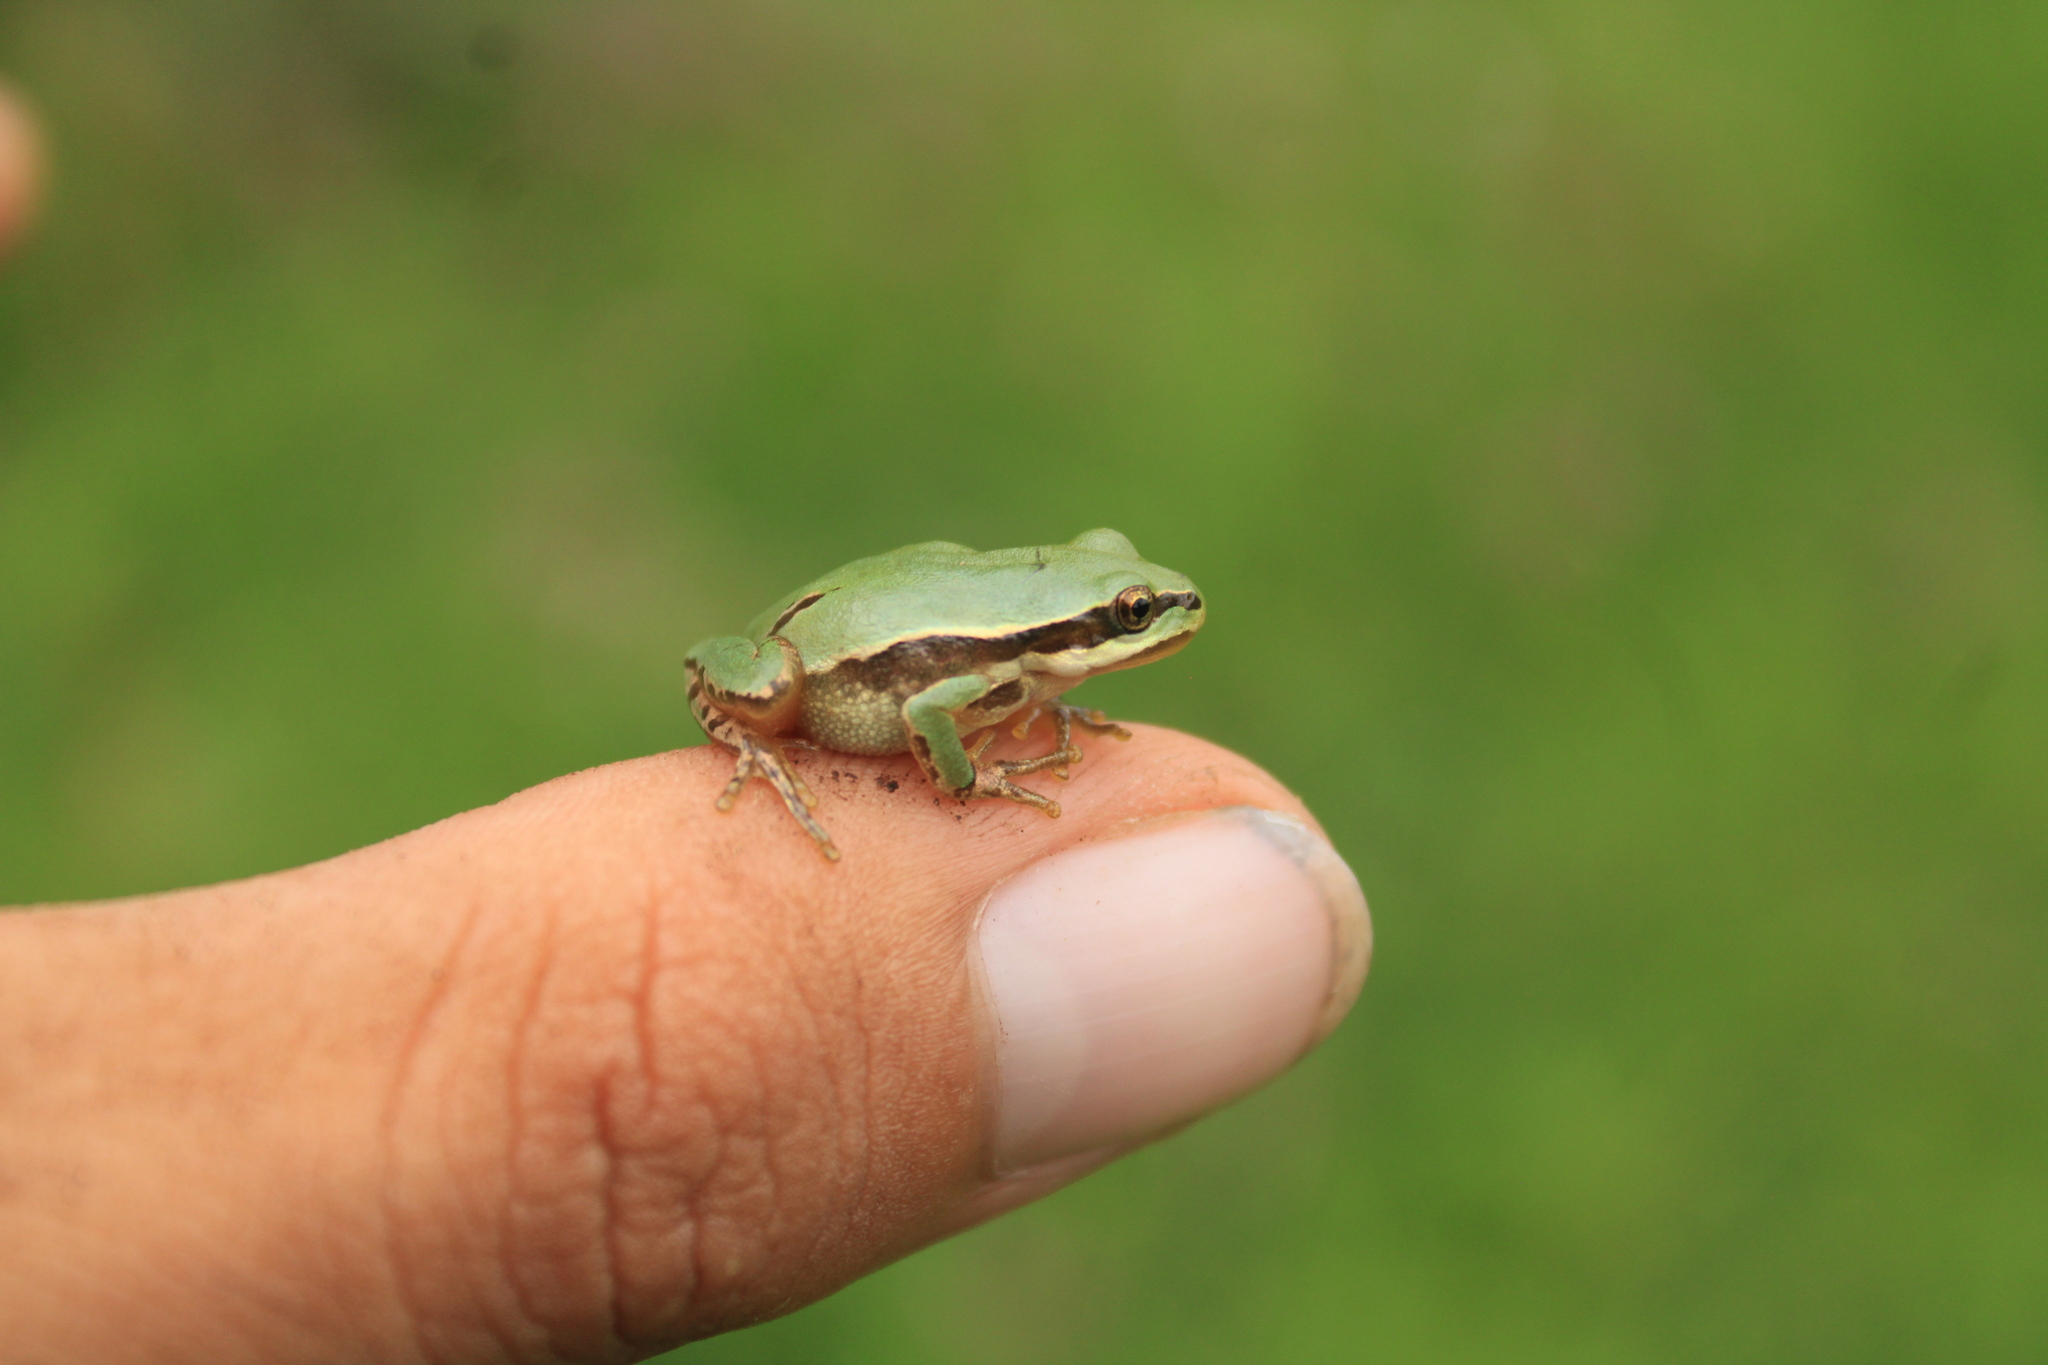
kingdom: Animalia
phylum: Chordata
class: Amphibia
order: Anura
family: Hylidae
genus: Dryophytes
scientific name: Dryophytes eximius
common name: Mountain treefrog
